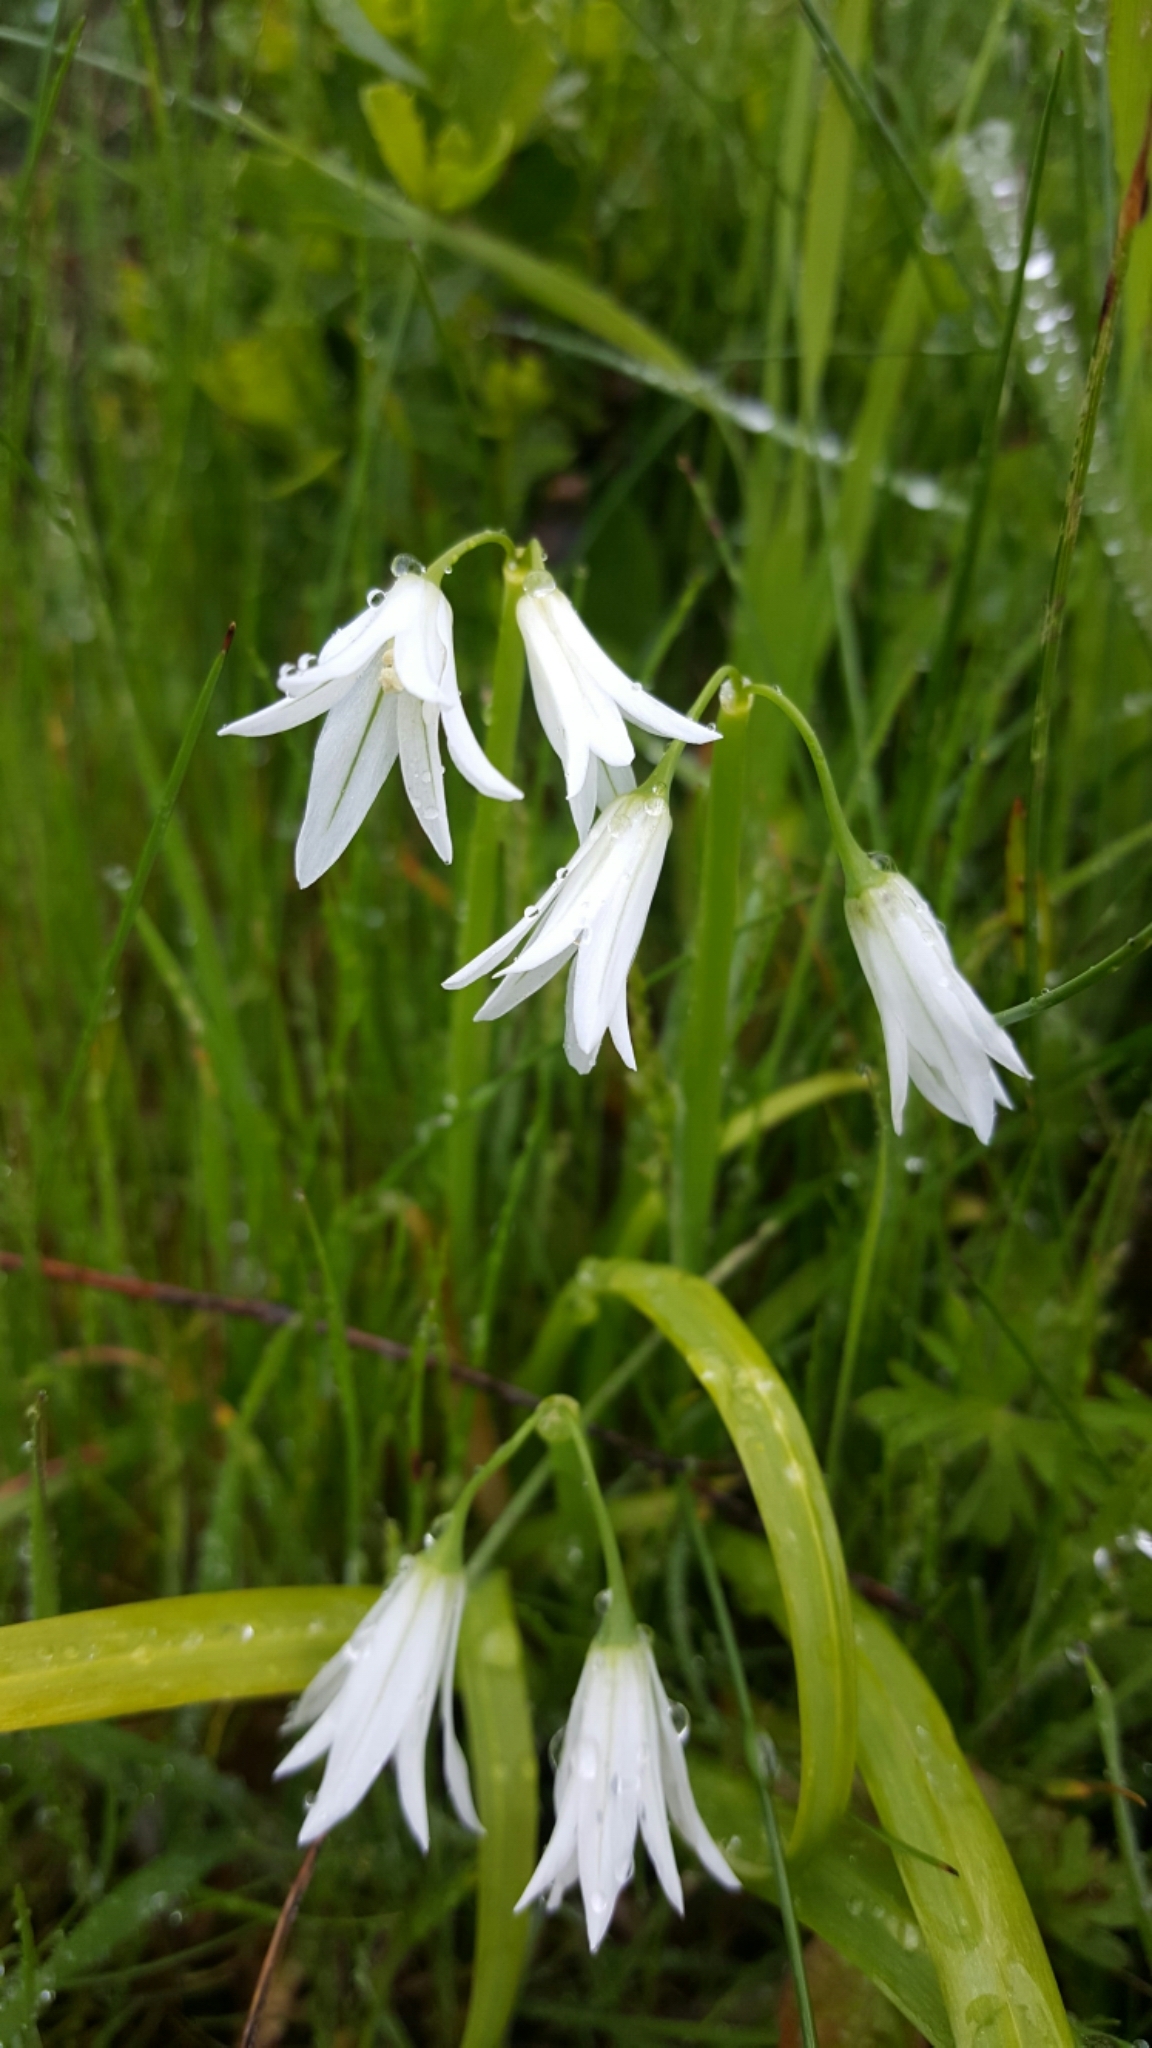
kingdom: Plantae
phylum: Tracheophyta
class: Liliopsida
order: Asparagales
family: Amaryllidaceae
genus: Allium
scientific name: Allium triquetrum
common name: Three-cornered garlic
